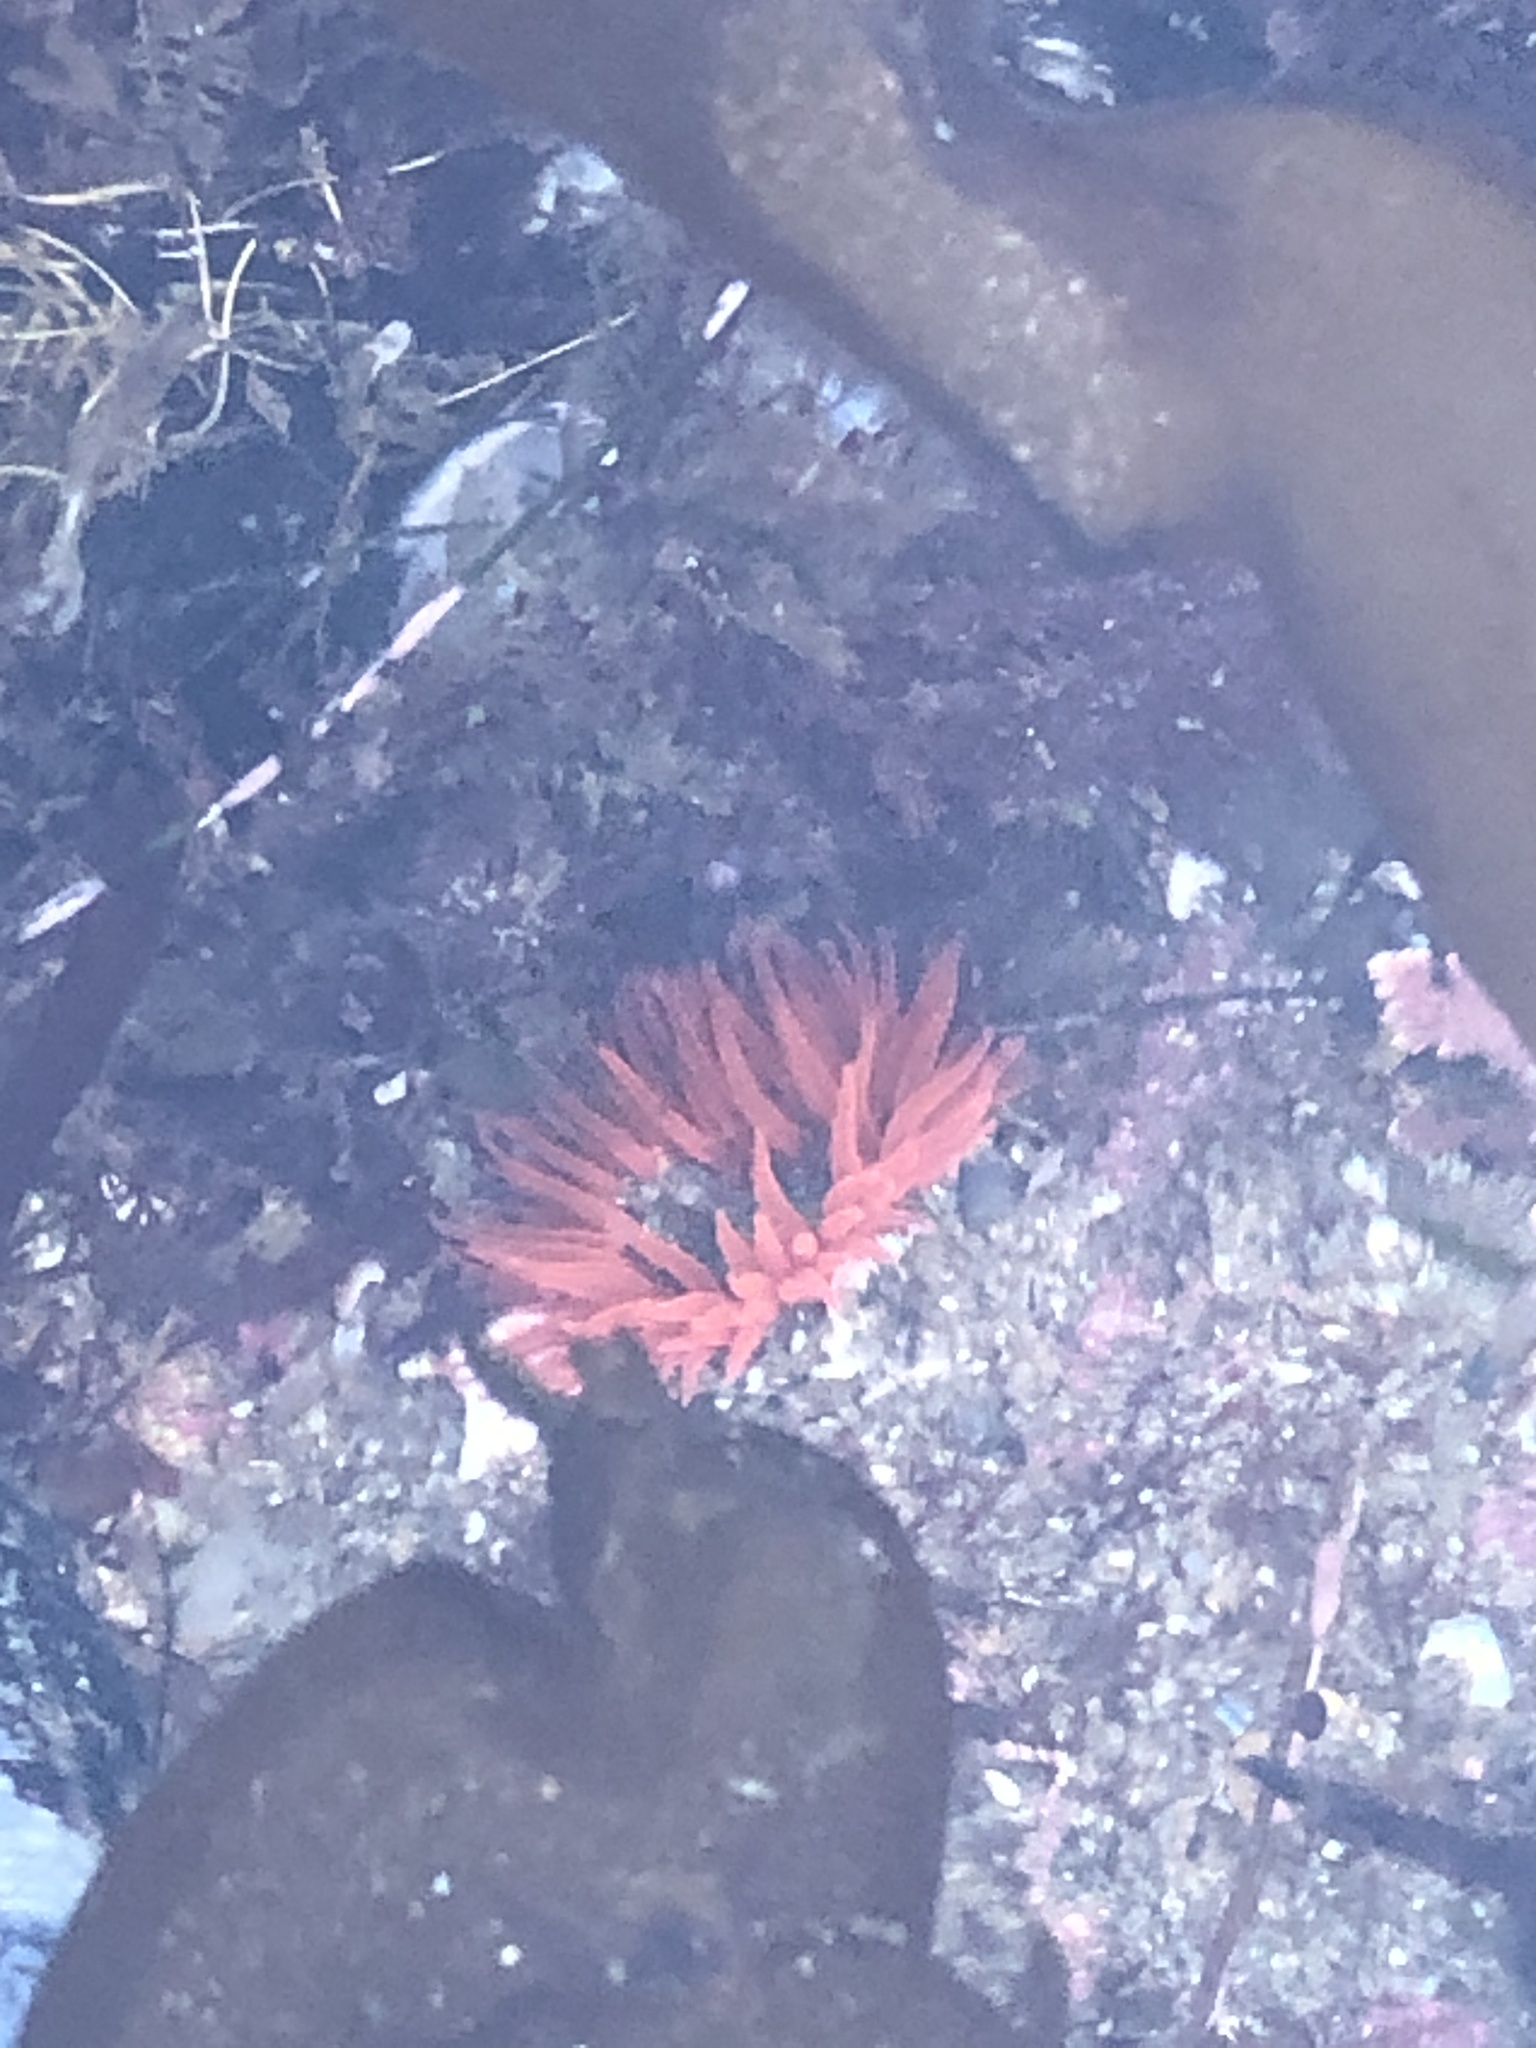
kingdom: Animalia
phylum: Cnidaria
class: Anthozoa
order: Actiniaria
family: Actiniidae
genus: Anthopleura
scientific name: Anthopleura artemisia
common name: Buried sea anemone
